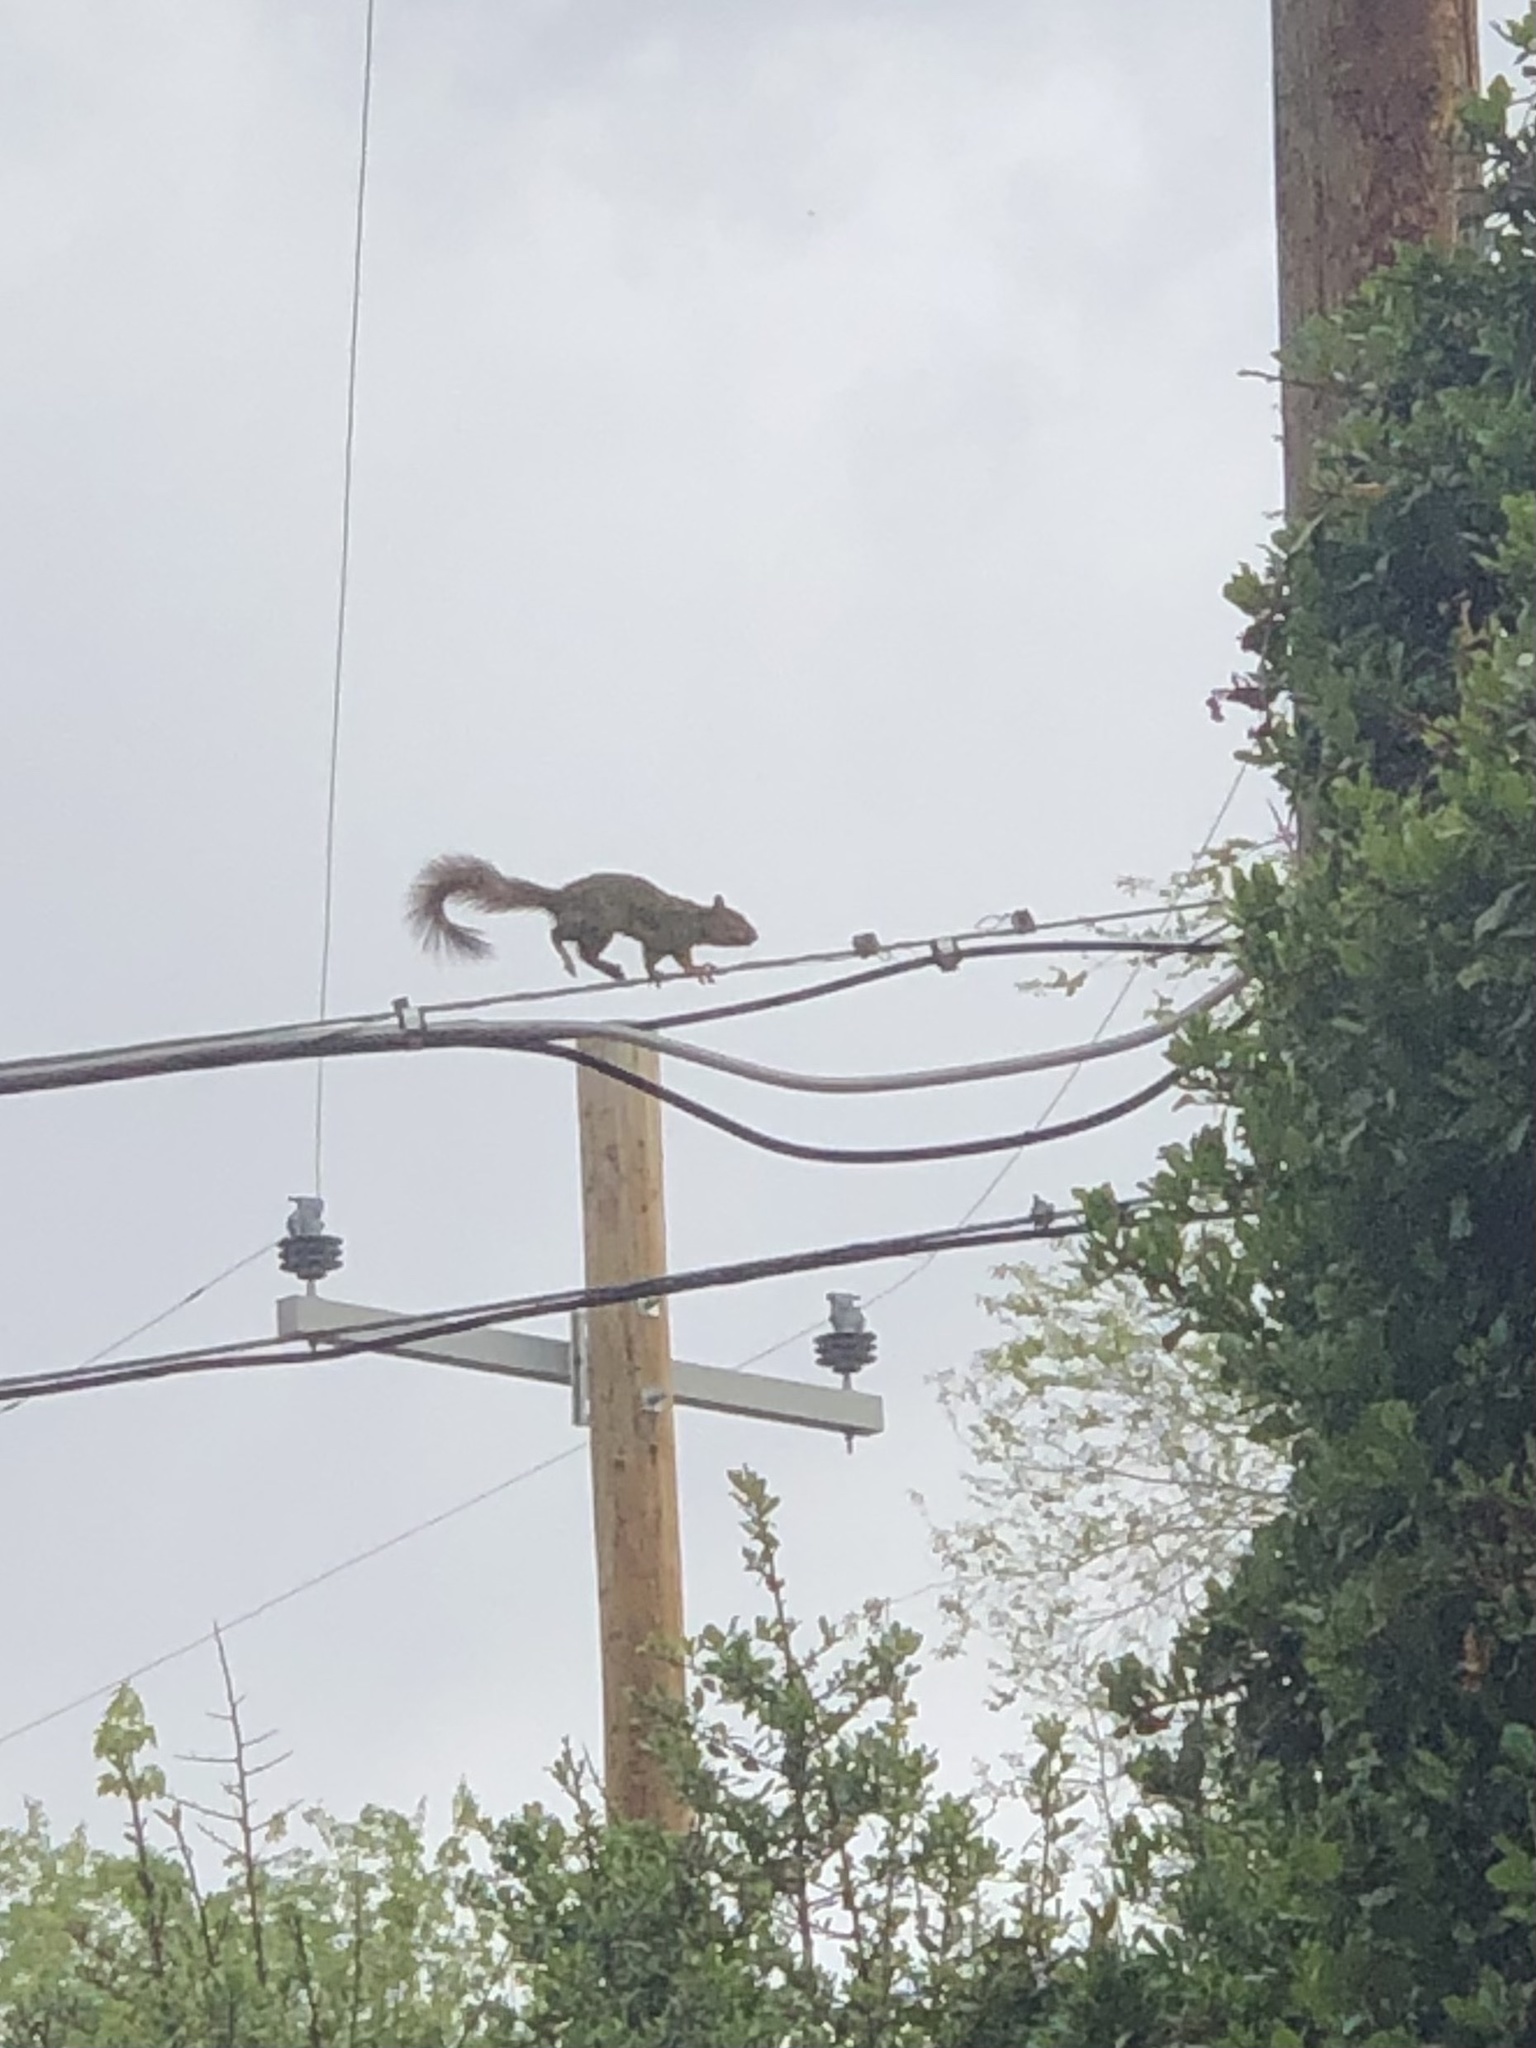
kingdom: Animalia
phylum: Chordata
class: Mammalia
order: Rodentia
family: Sciuridae
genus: Sciurus
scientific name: Sciurus niger
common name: Fox squirrel
